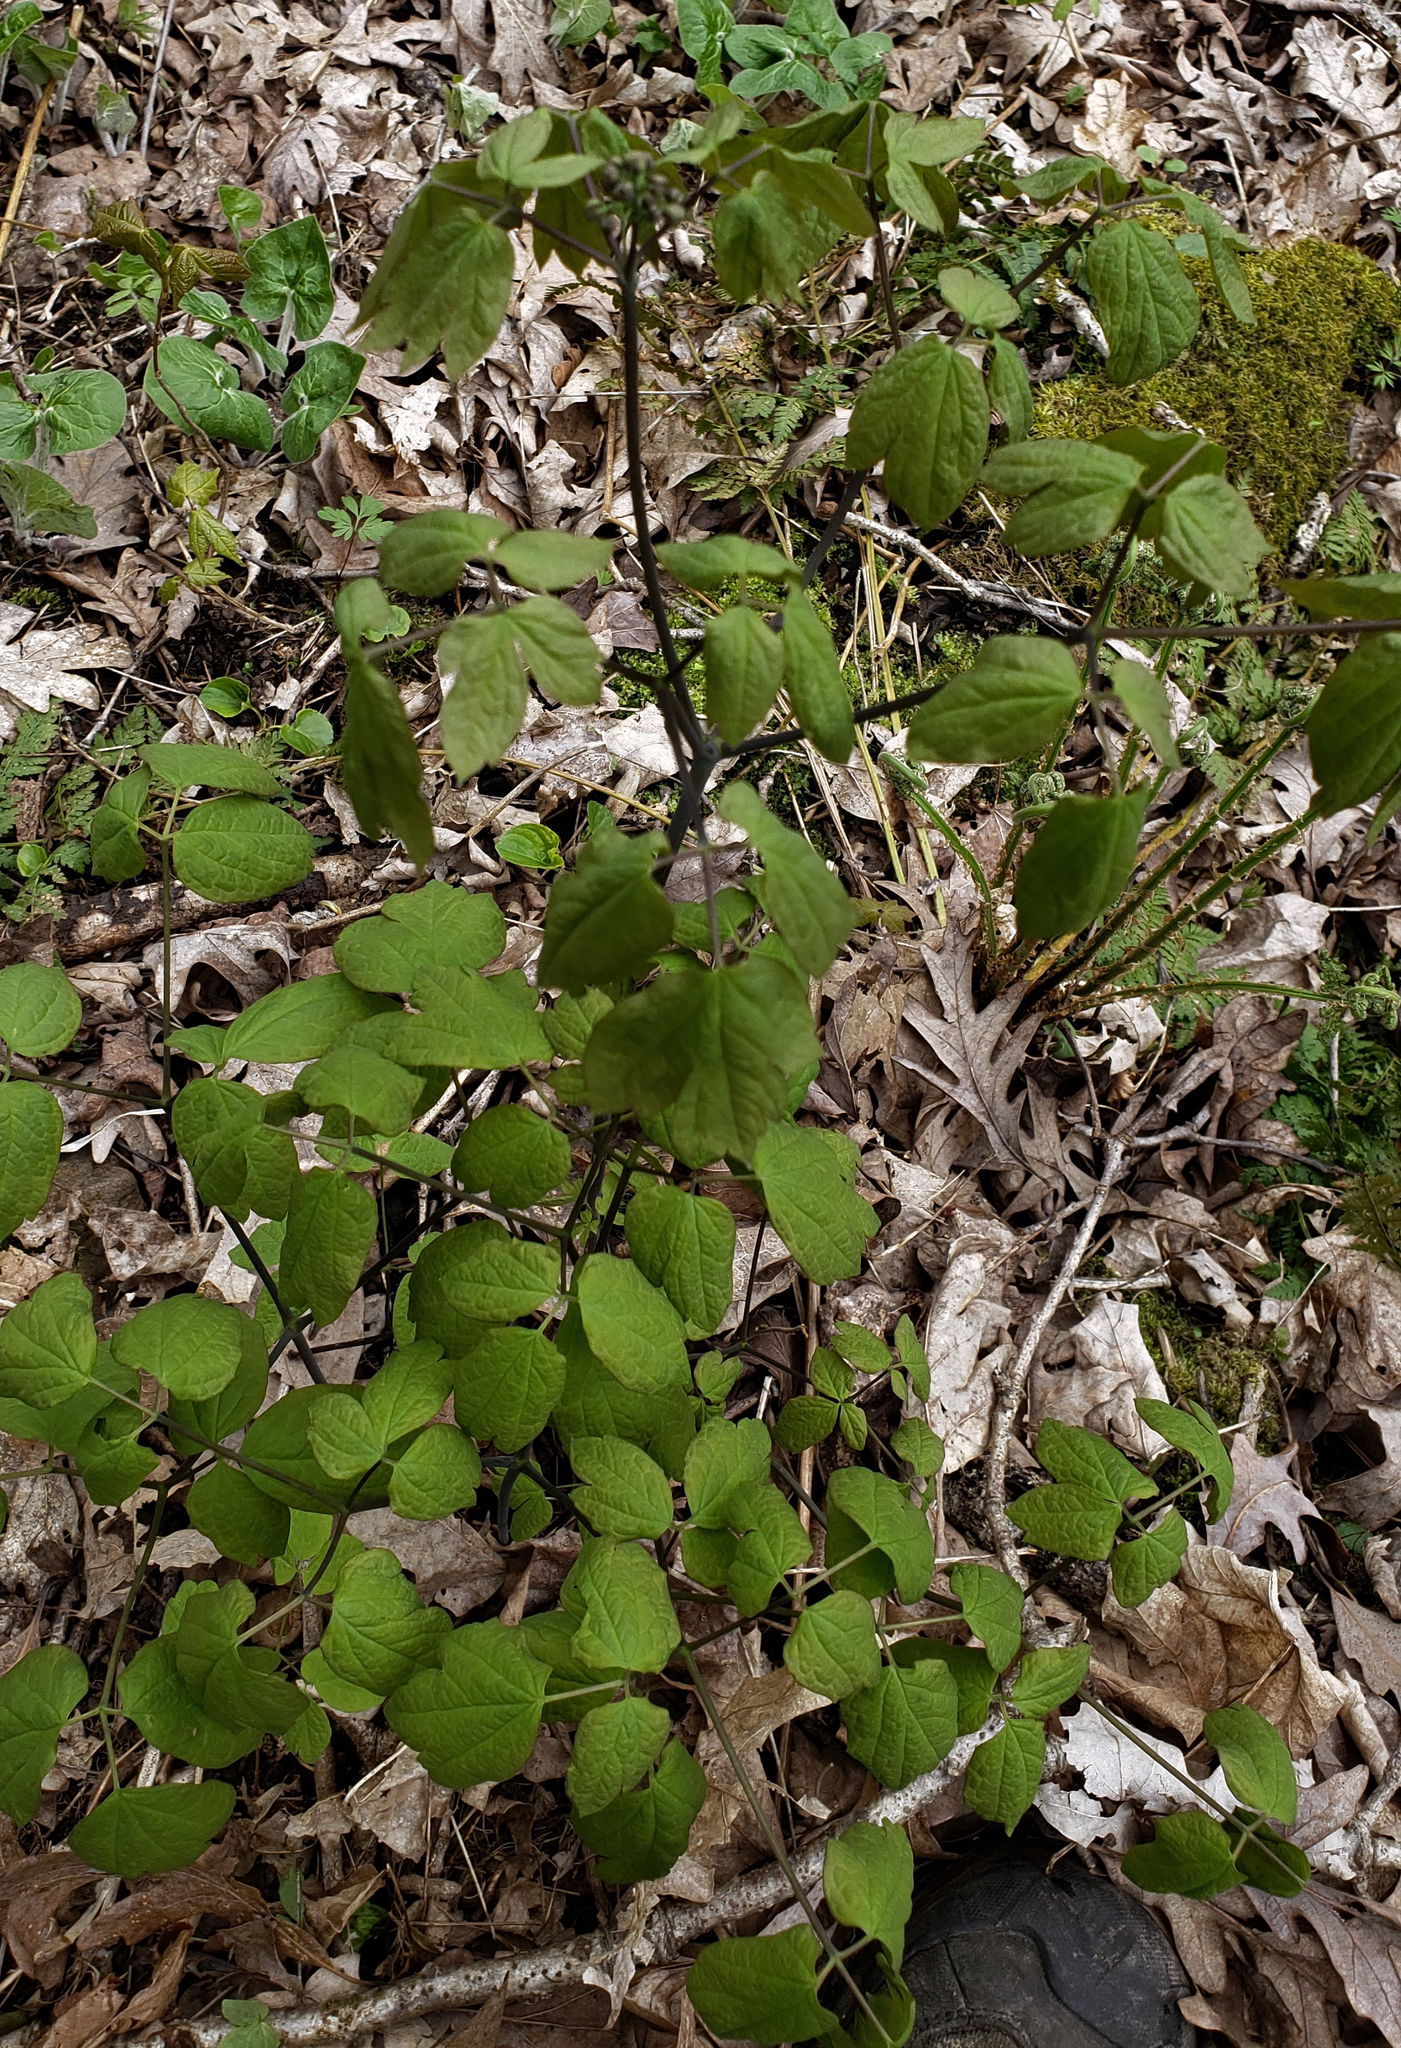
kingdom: Plantae
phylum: Tracheophyta
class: Magnoliopsida
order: Ranunculales
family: Berberidaceae
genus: Caulophyllum
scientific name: Caulophyllum thalictroides
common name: Blue cohosh
